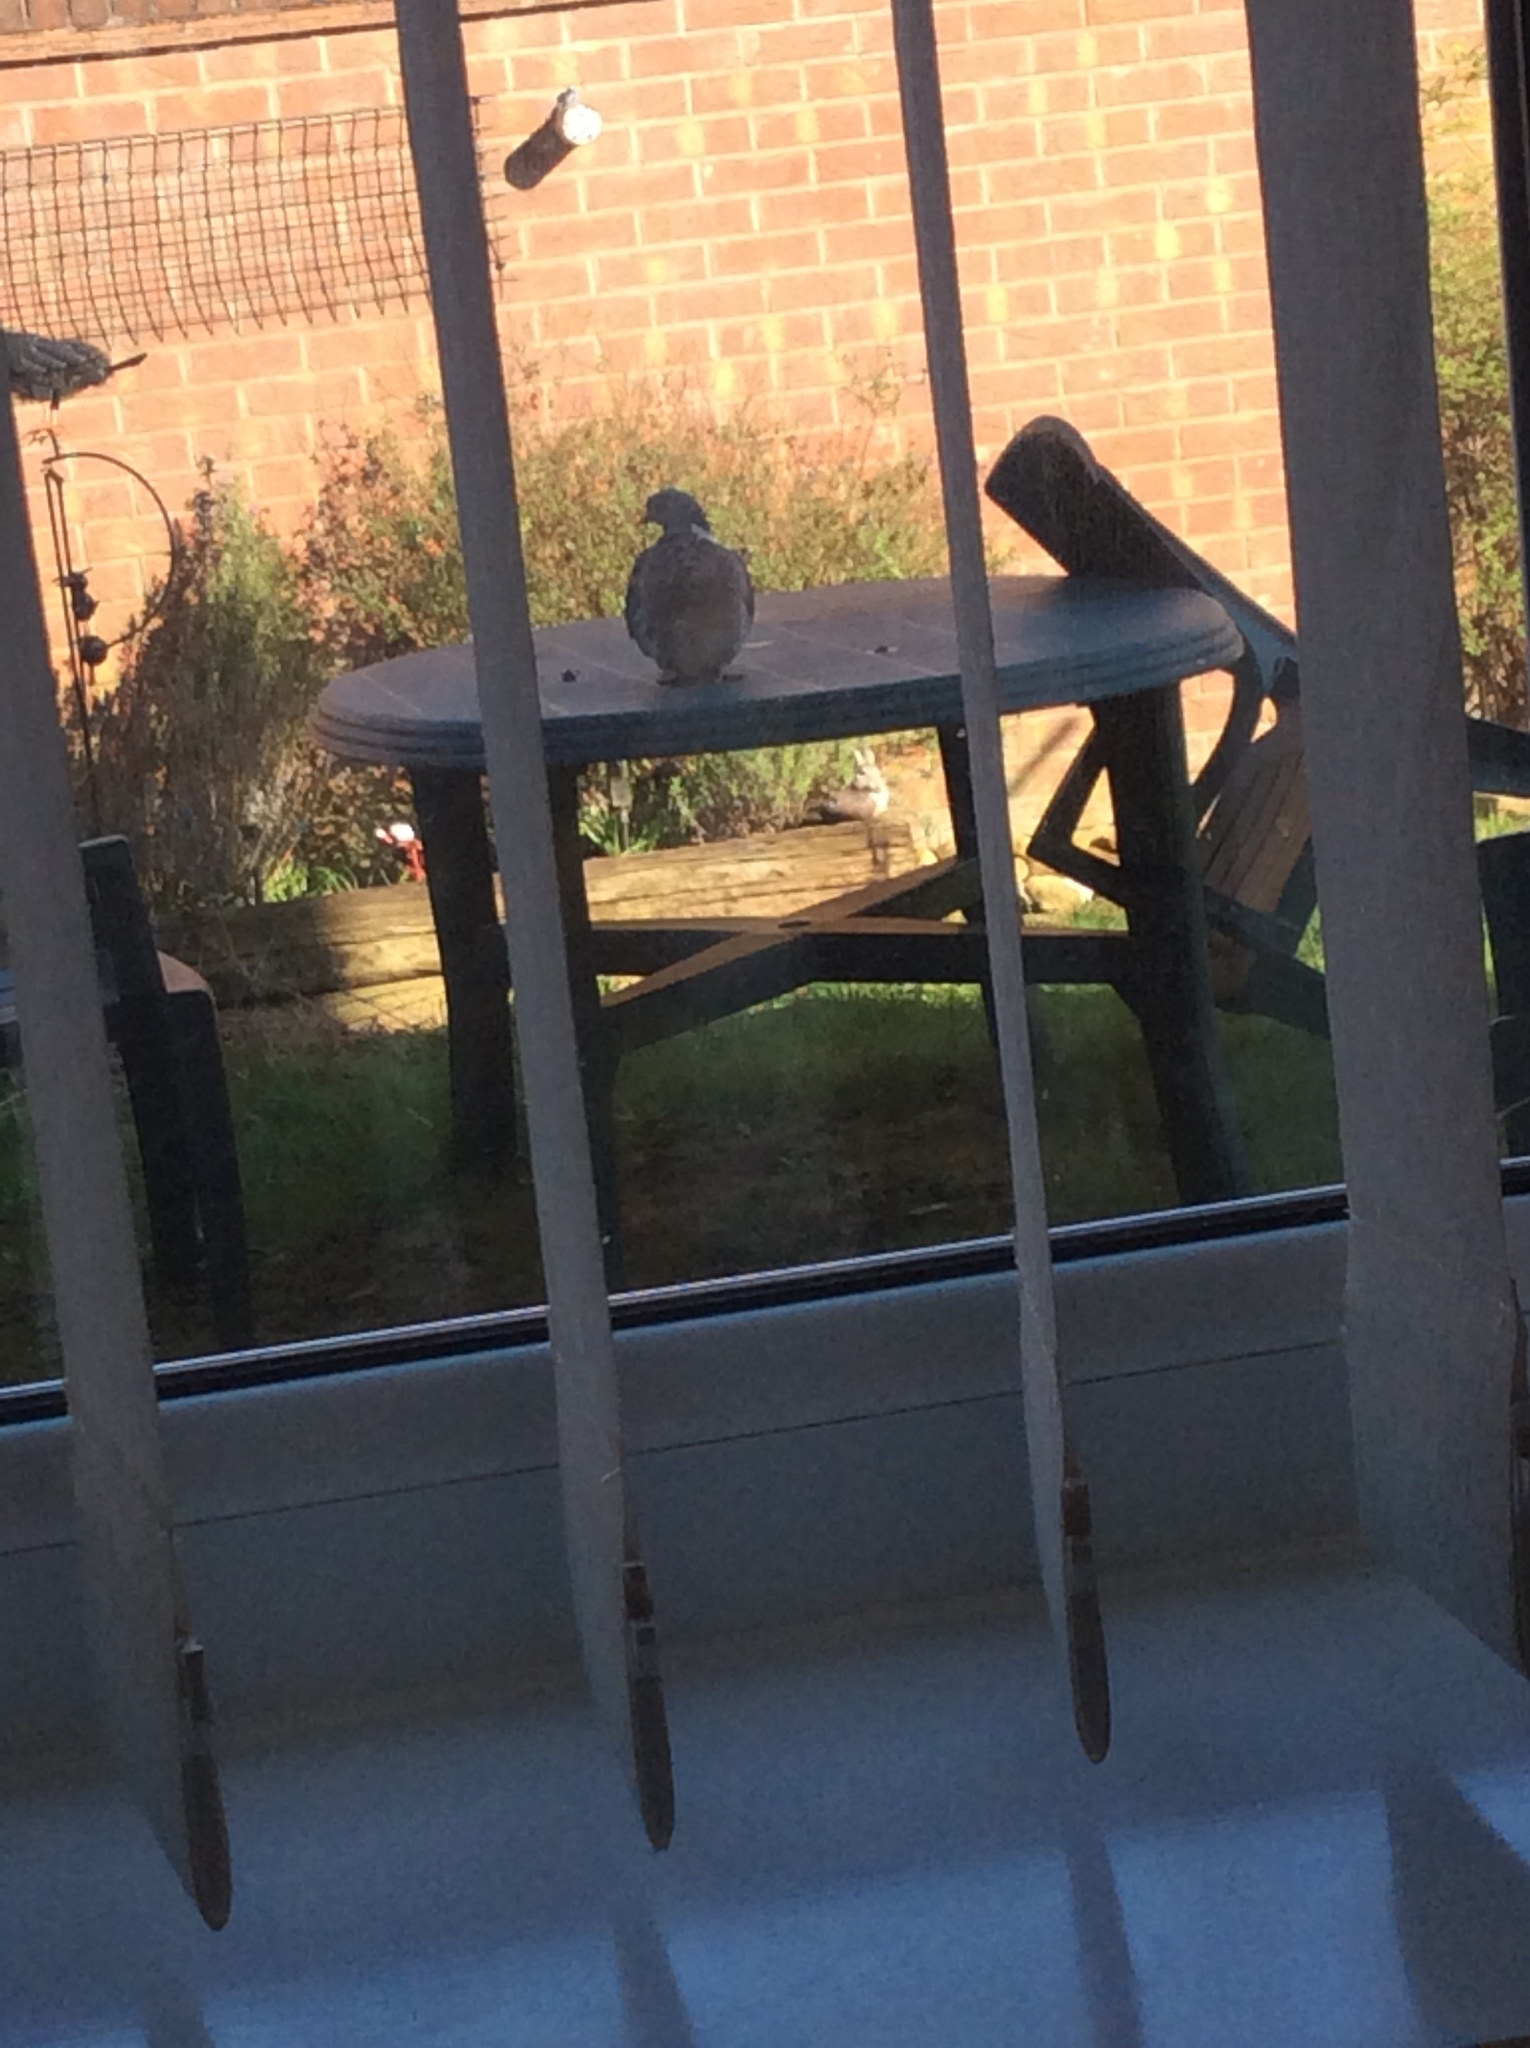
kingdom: Animalia
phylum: Chordata
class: Aves
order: Columbiformes
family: Columbidae
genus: Columba
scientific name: Columba palumbus
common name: Common wood pigeon
